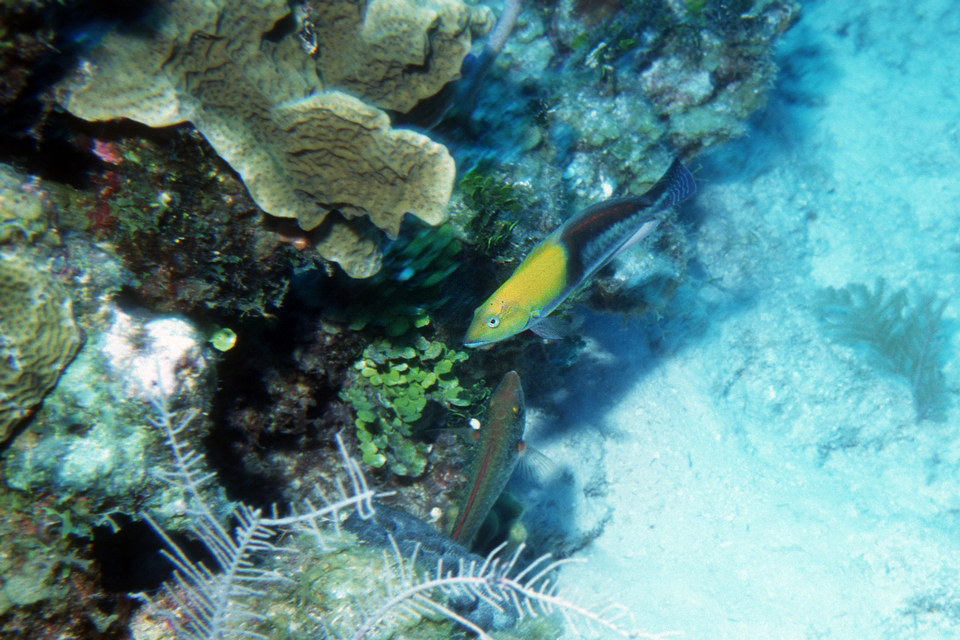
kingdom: Animalia
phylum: Chordata
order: Perciformes
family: Labridae
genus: Halichoeres
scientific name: Halichoeres garnoti
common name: Yellowhead wrasse
